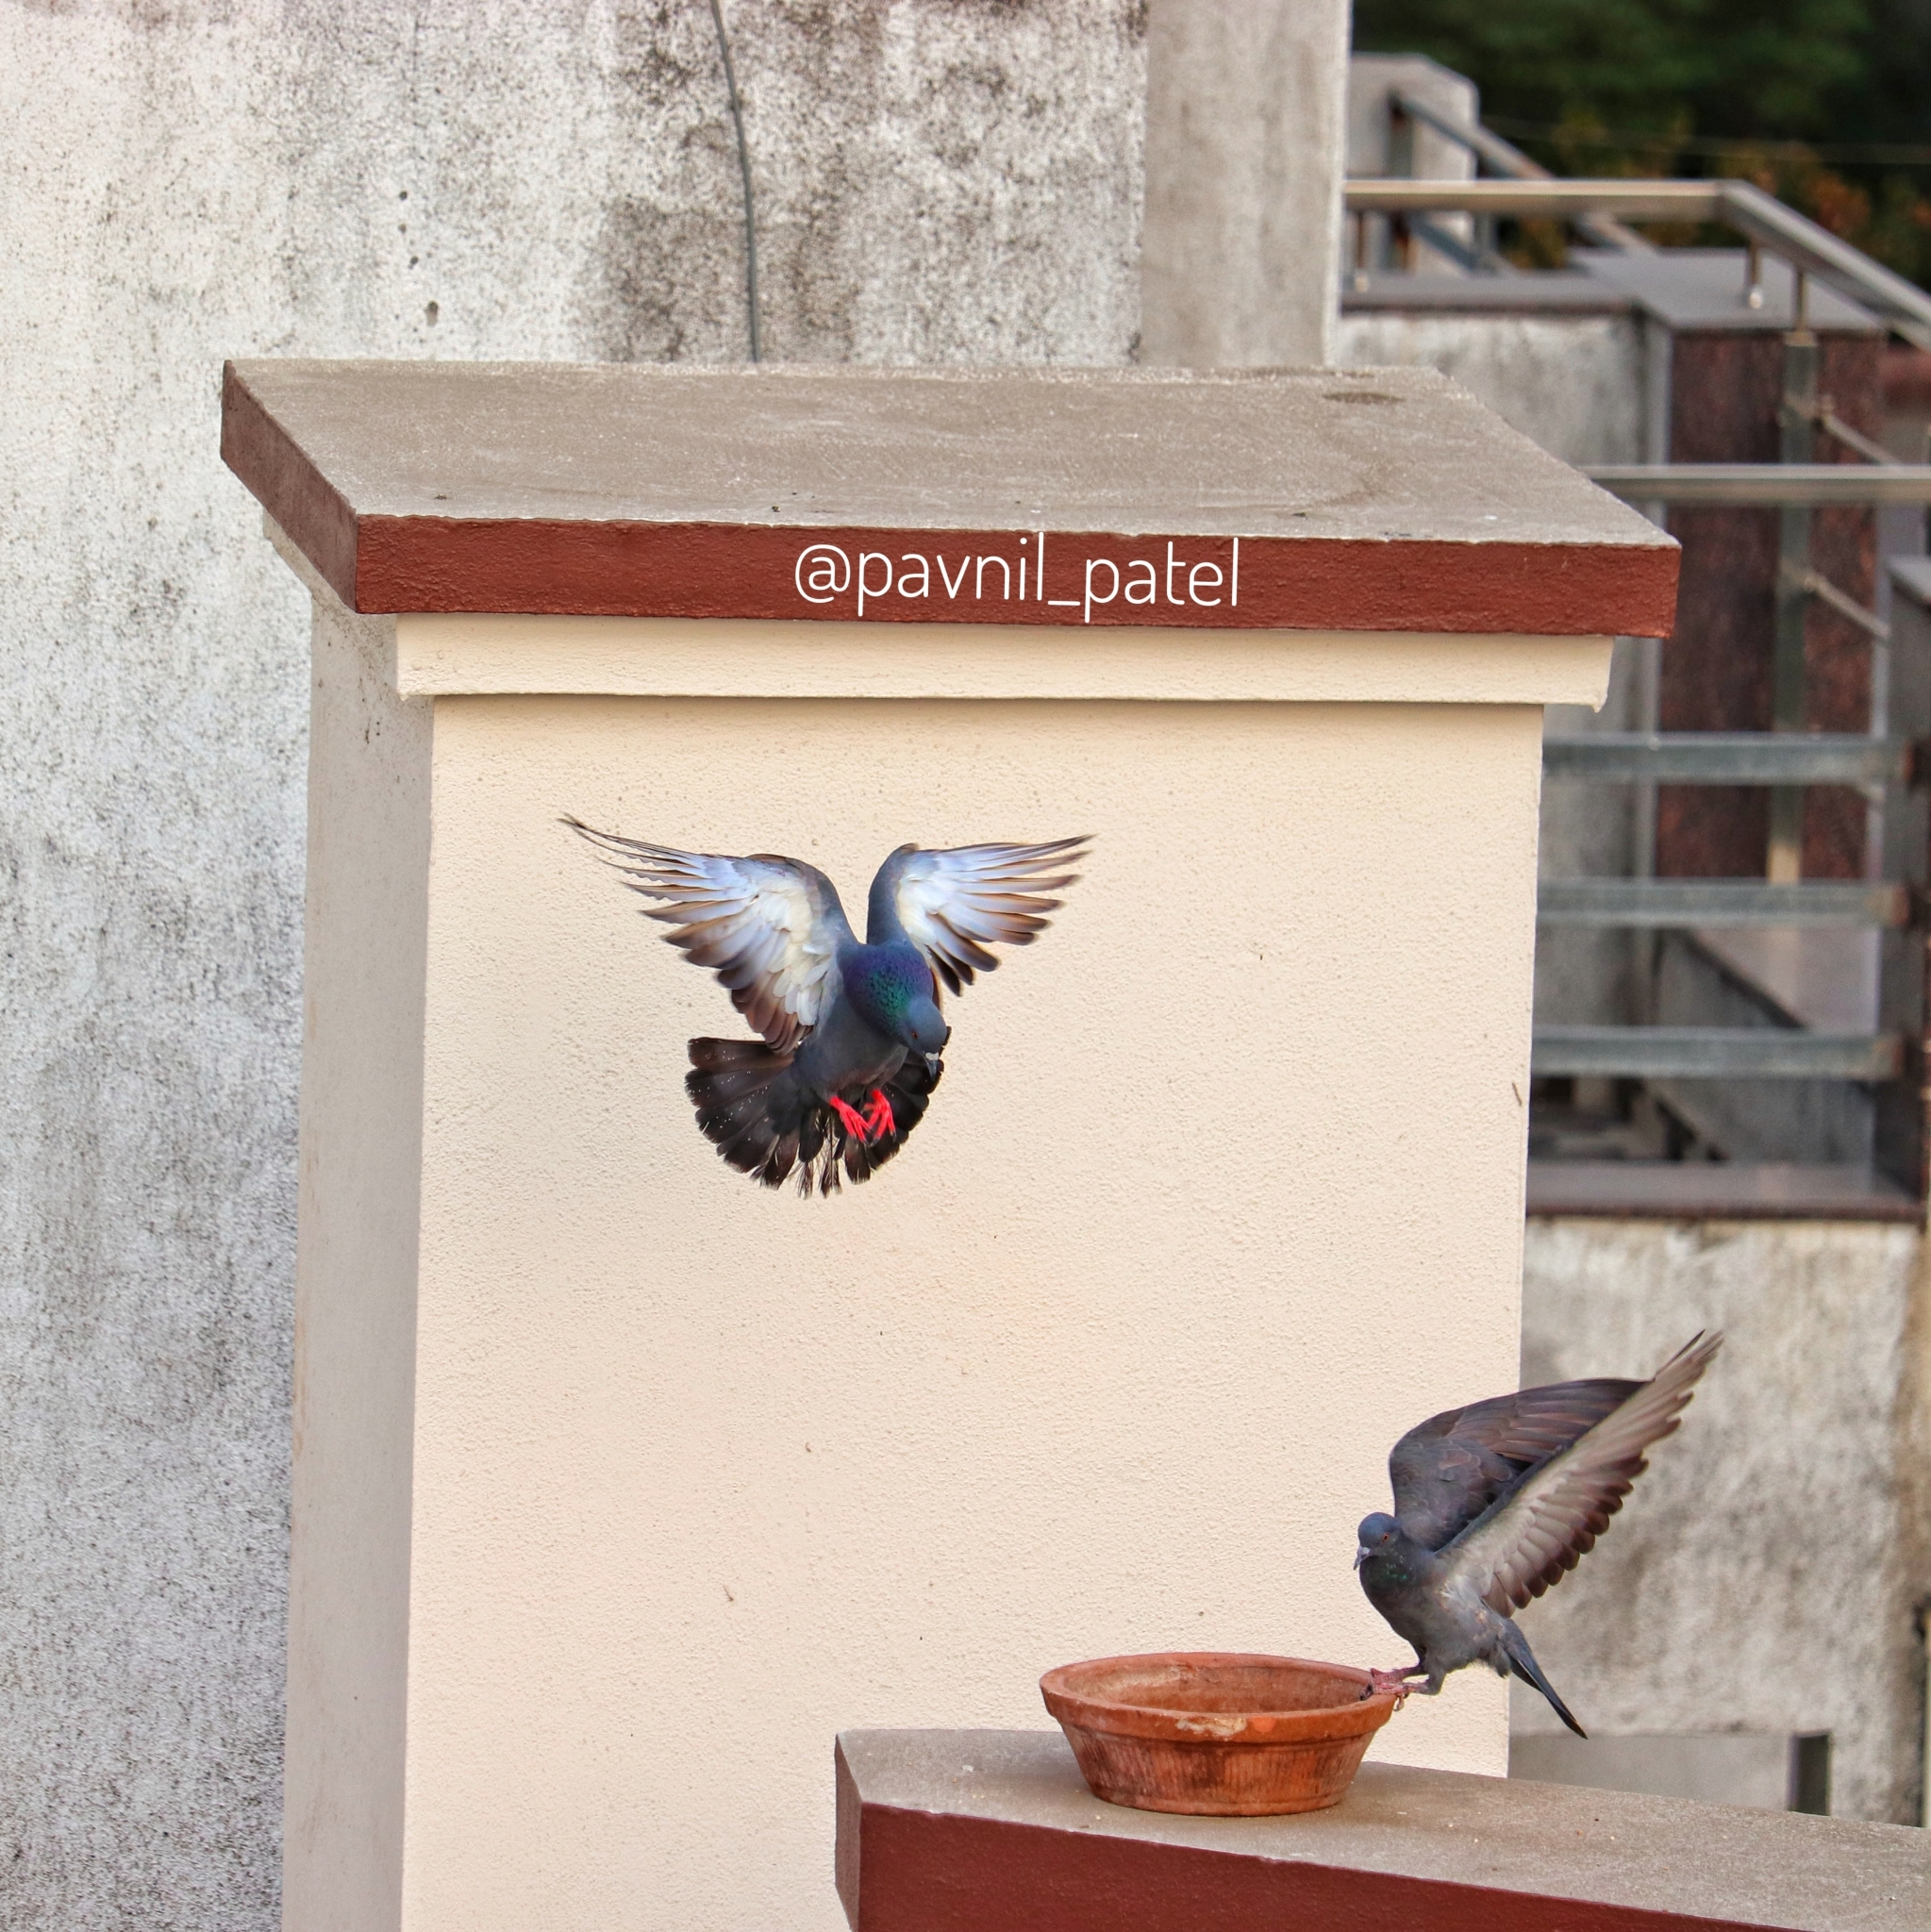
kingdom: Animalia
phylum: Chordata
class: Aves
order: Columbiformes
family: Columbidae
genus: Columba
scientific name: Columba livia
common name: Rock pigeon
